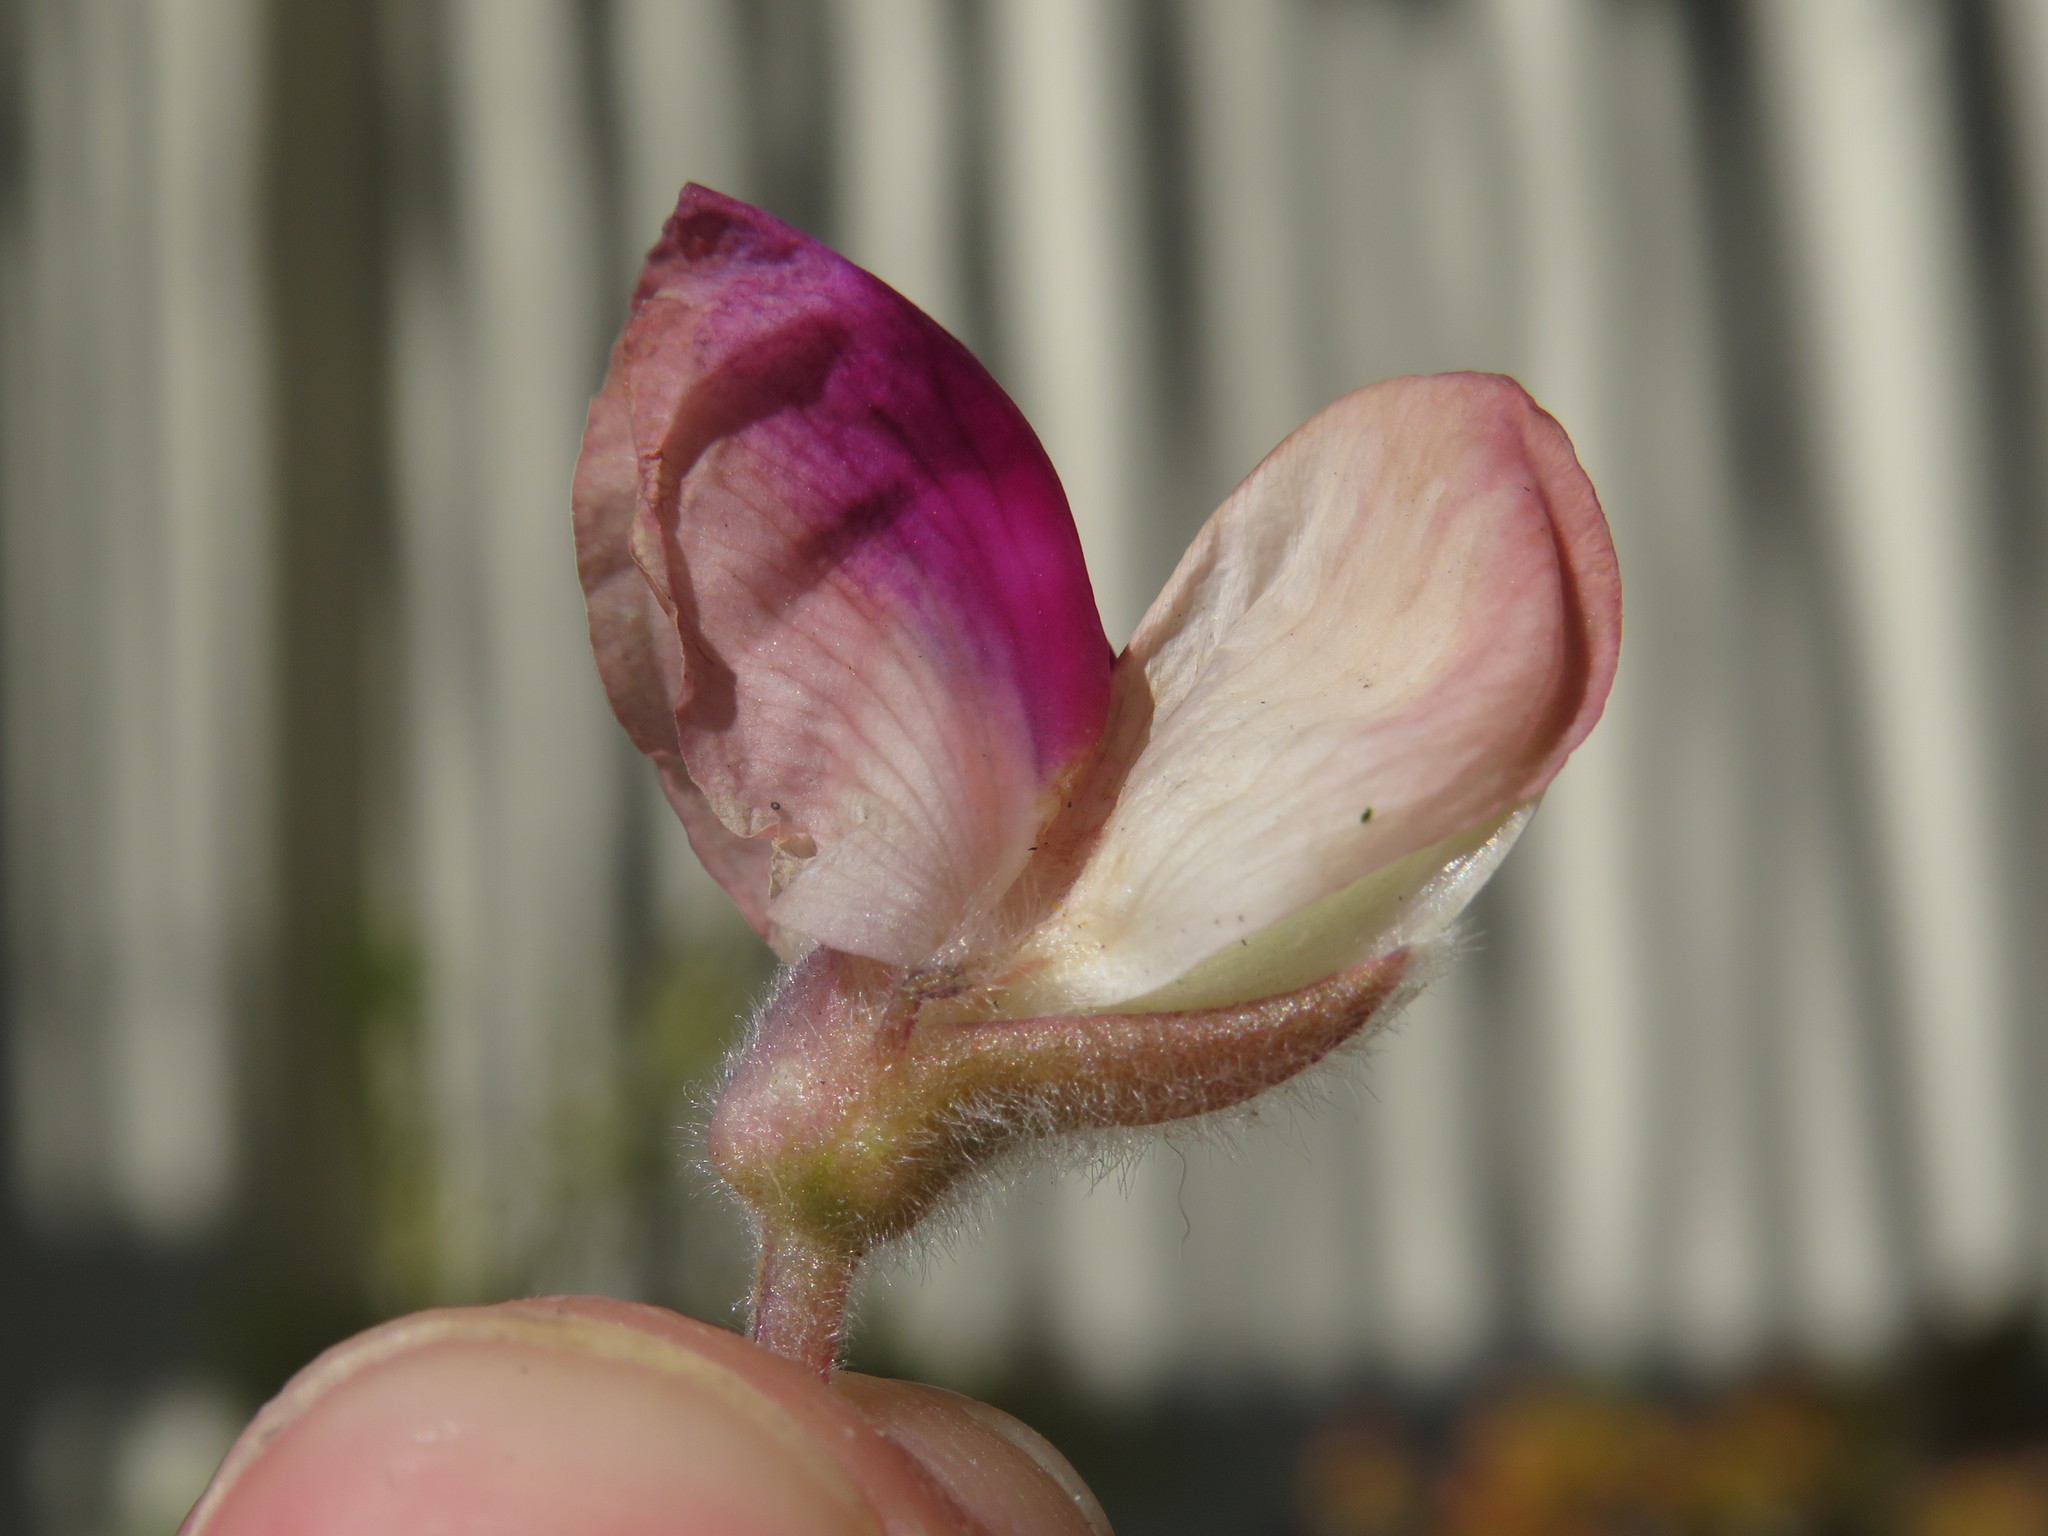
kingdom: Plantae
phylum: Tracheophyta
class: Magnoliopsida
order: Fabales
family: Fabaceae
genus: Lupinus
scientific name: Lupinus pilosus
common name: Blue lupine
